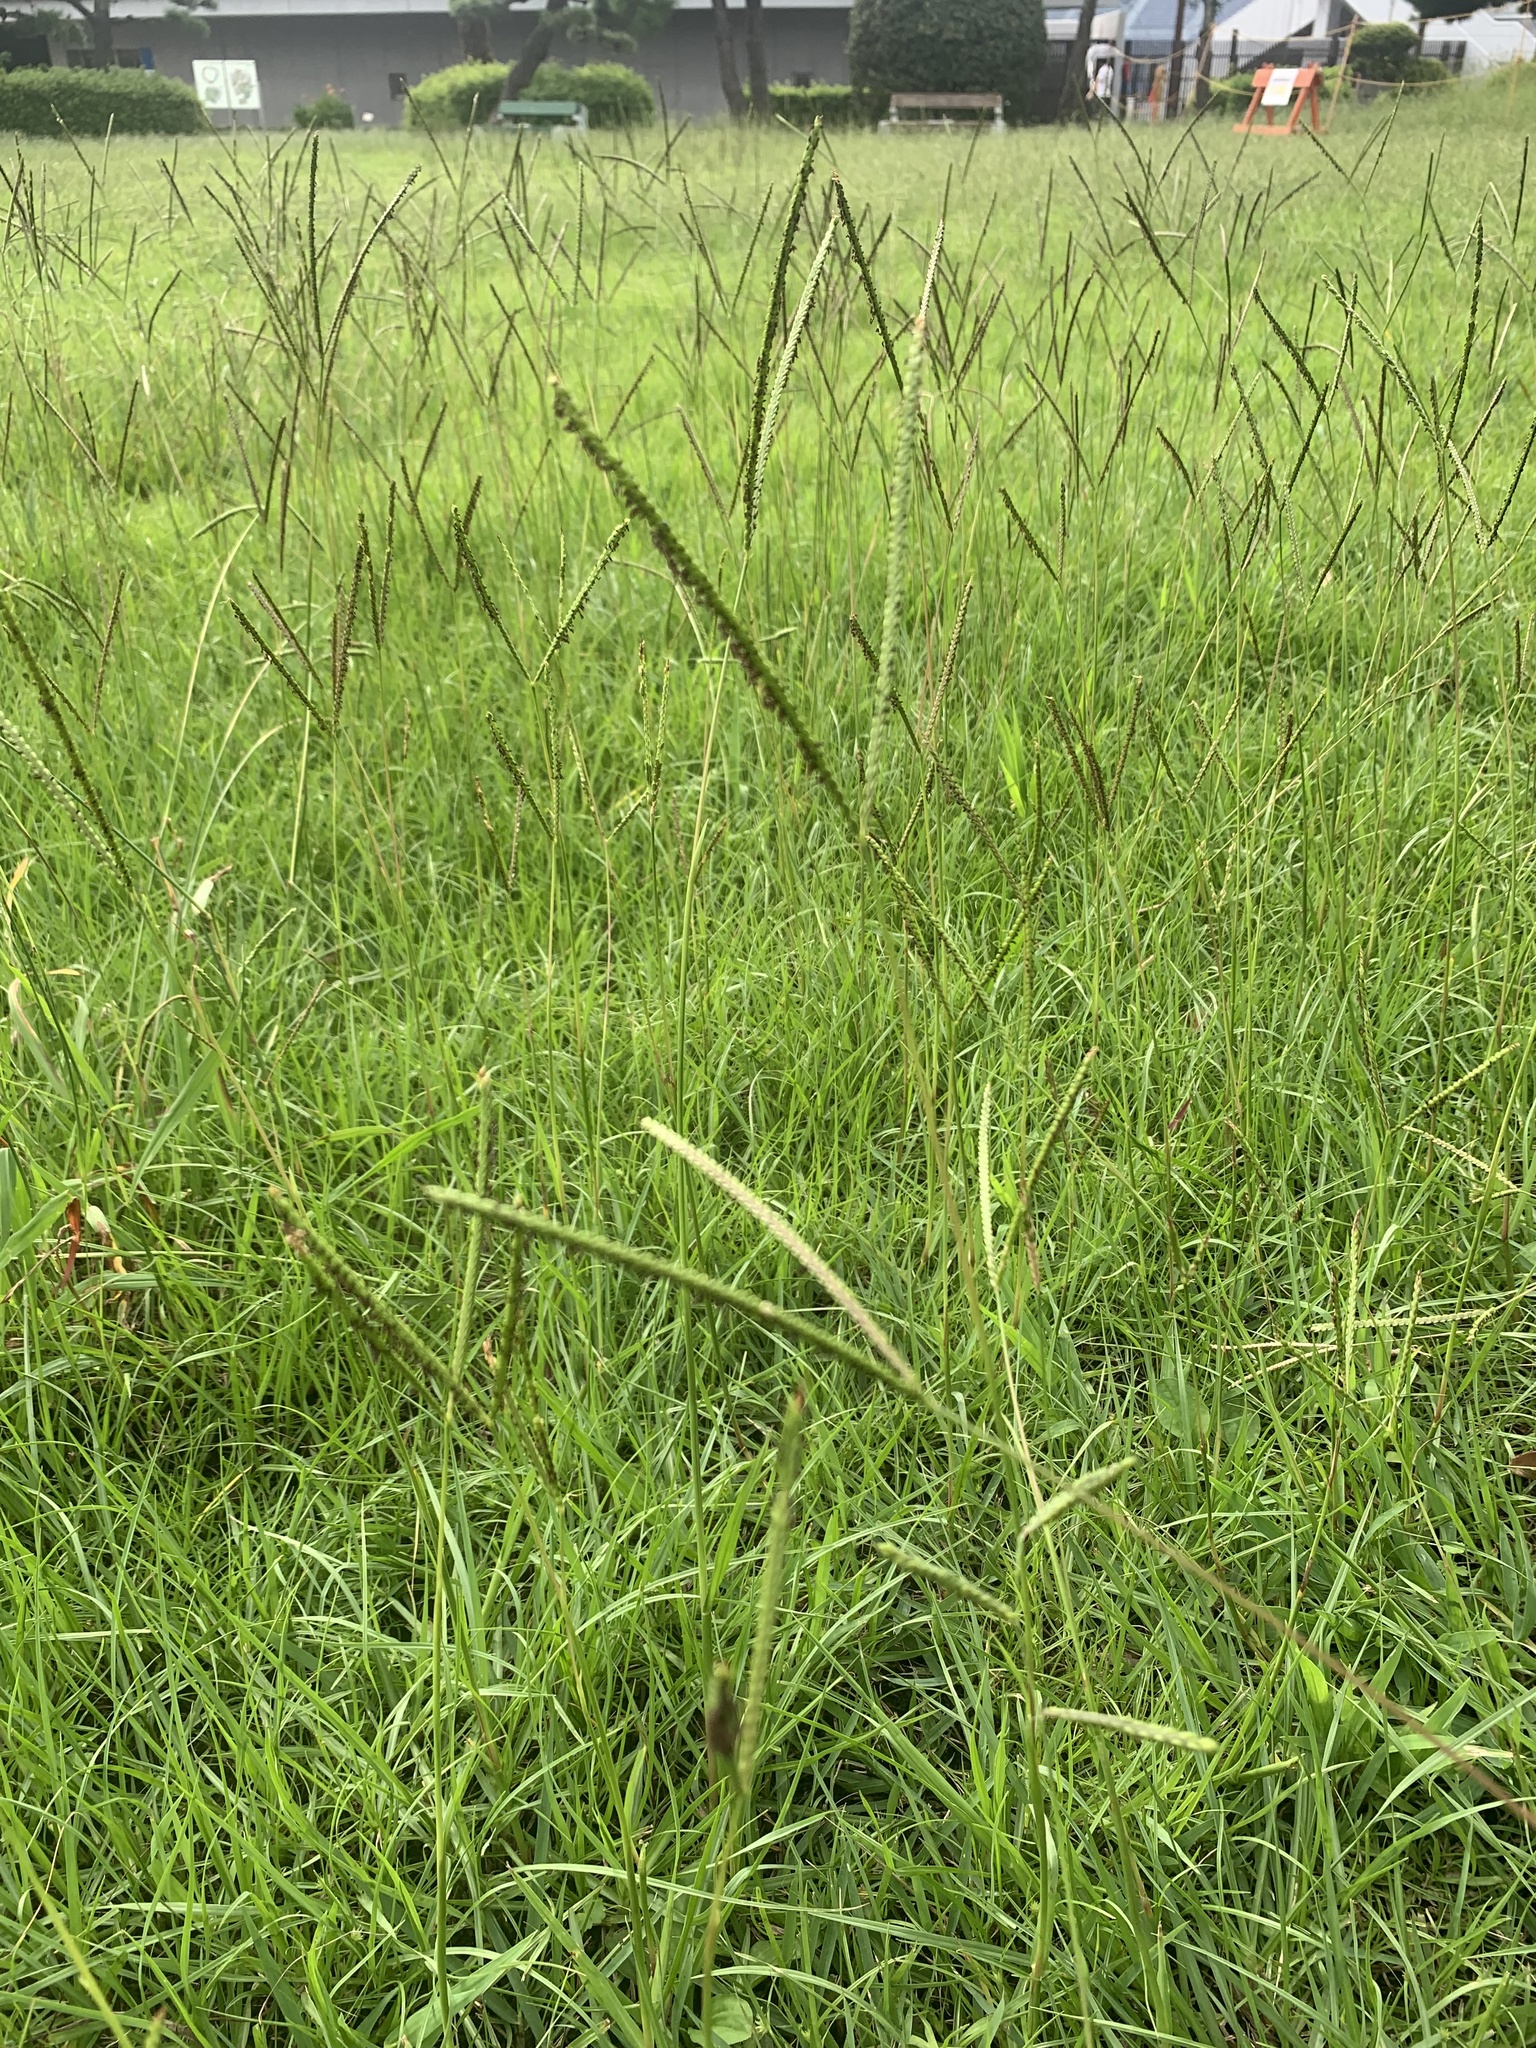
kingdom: Plantae
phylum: Tracheophyta
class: Liliopsida
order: Poales
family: Poaceae
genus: Paspalum
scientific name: Paspalum notatum
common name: Bahiagrass
